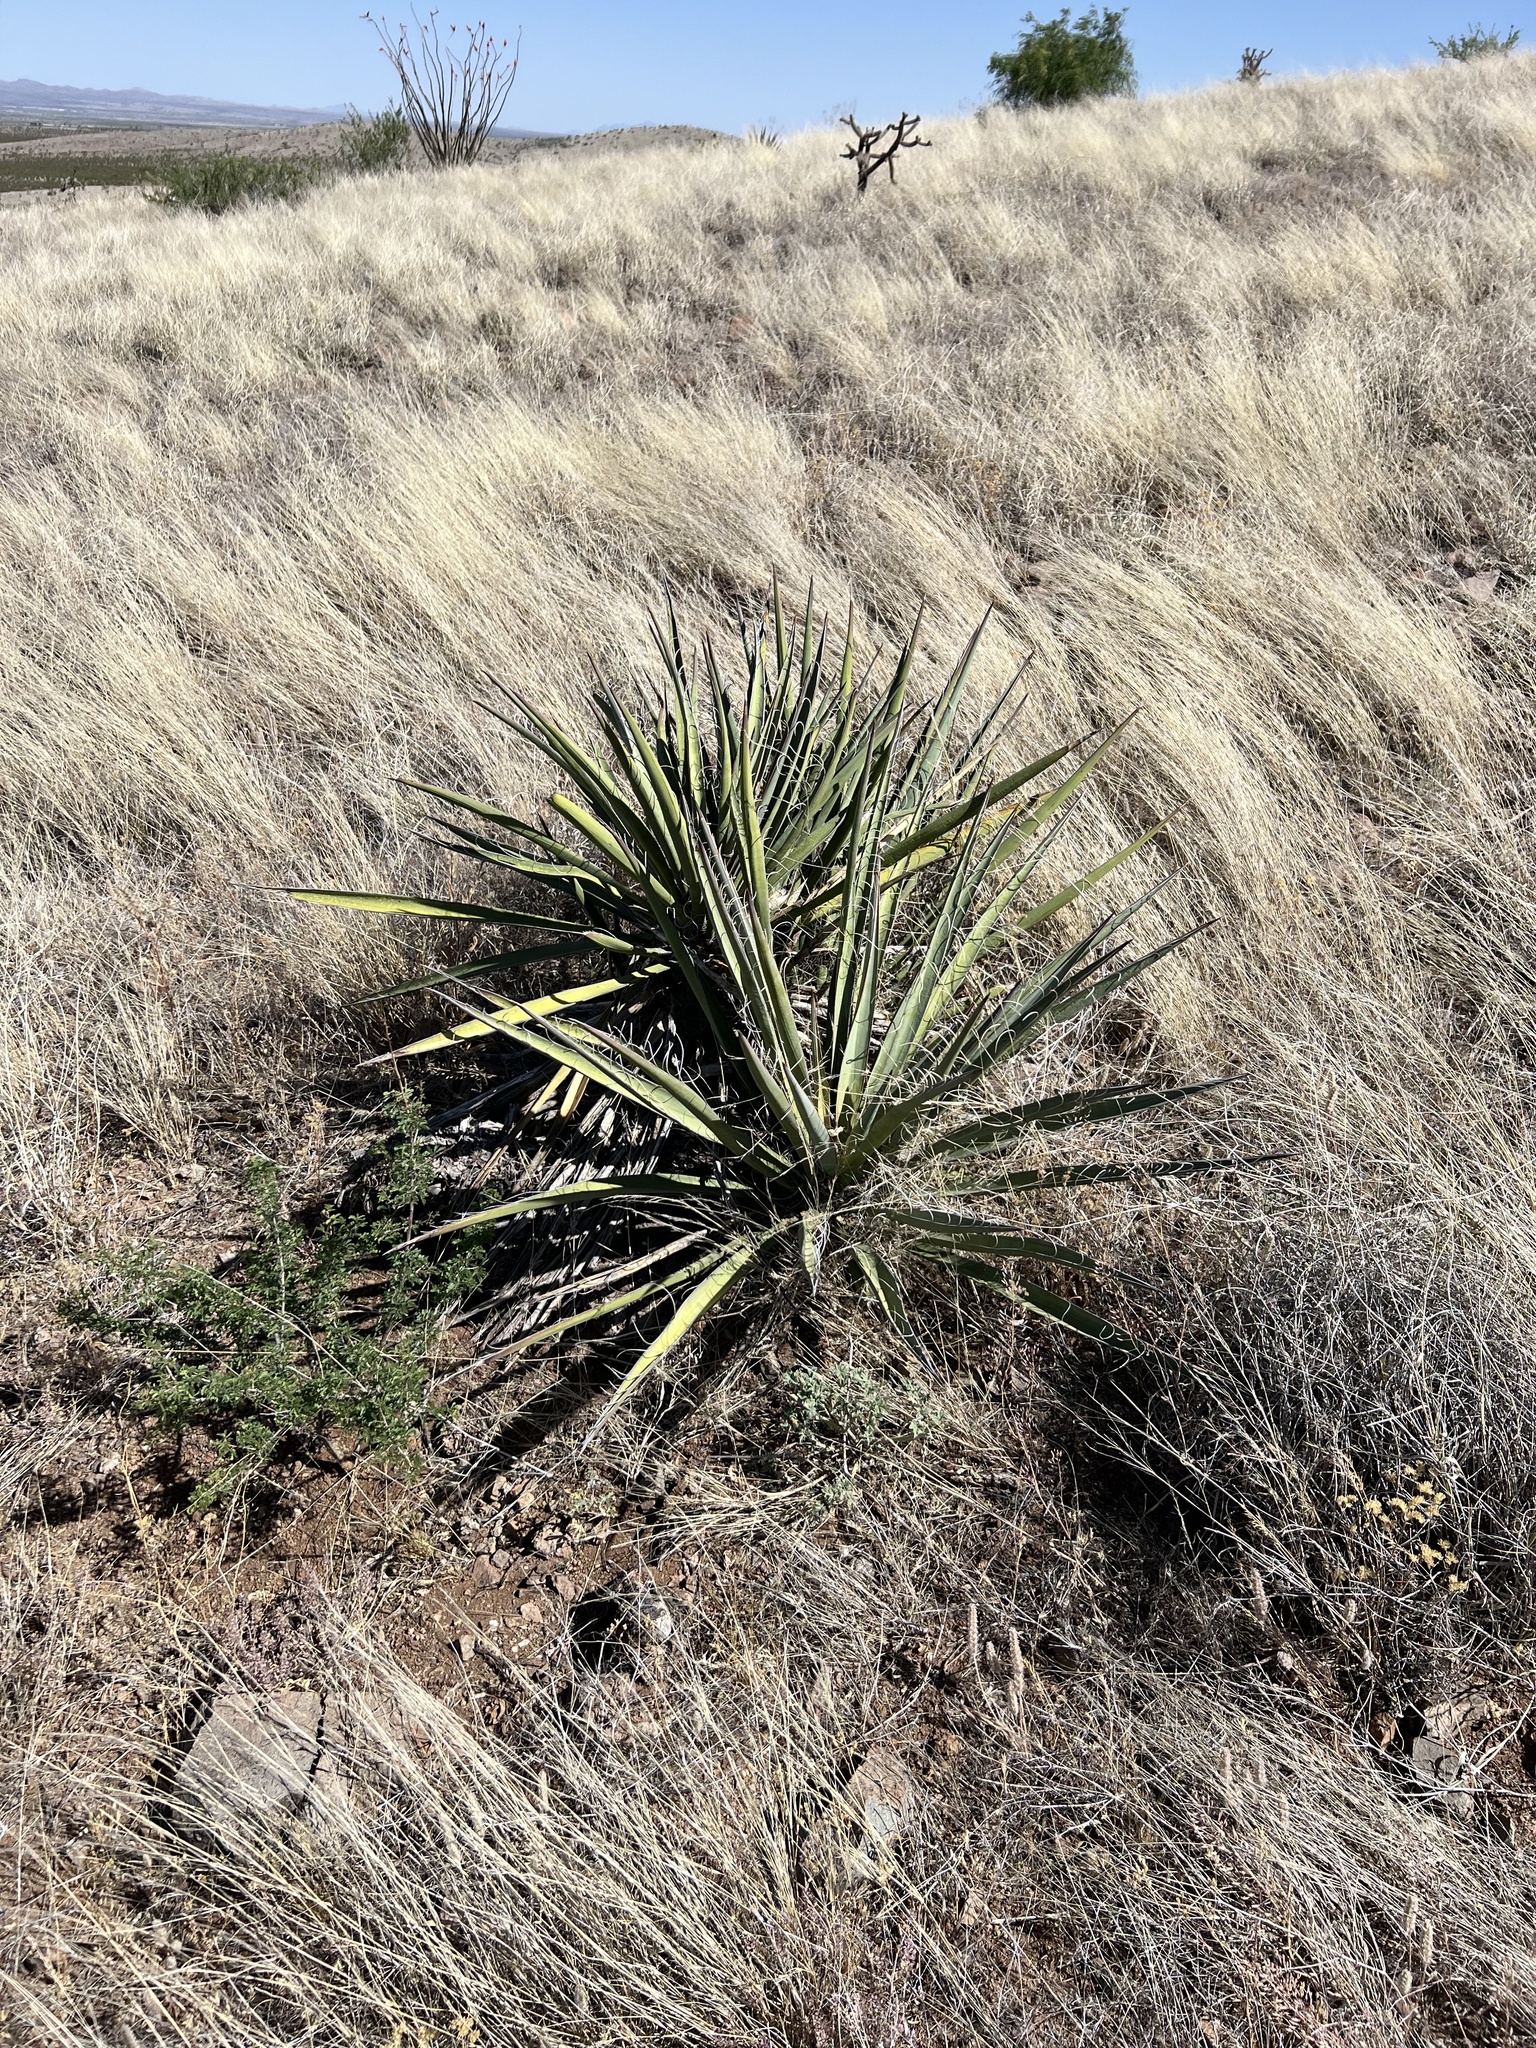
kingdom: Plantae
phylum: Tracheophyta
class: Liliopsida
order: Asparagales
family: Asparagaceae
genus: Yucca
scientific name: Yucca baccata
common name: Banana yucca
